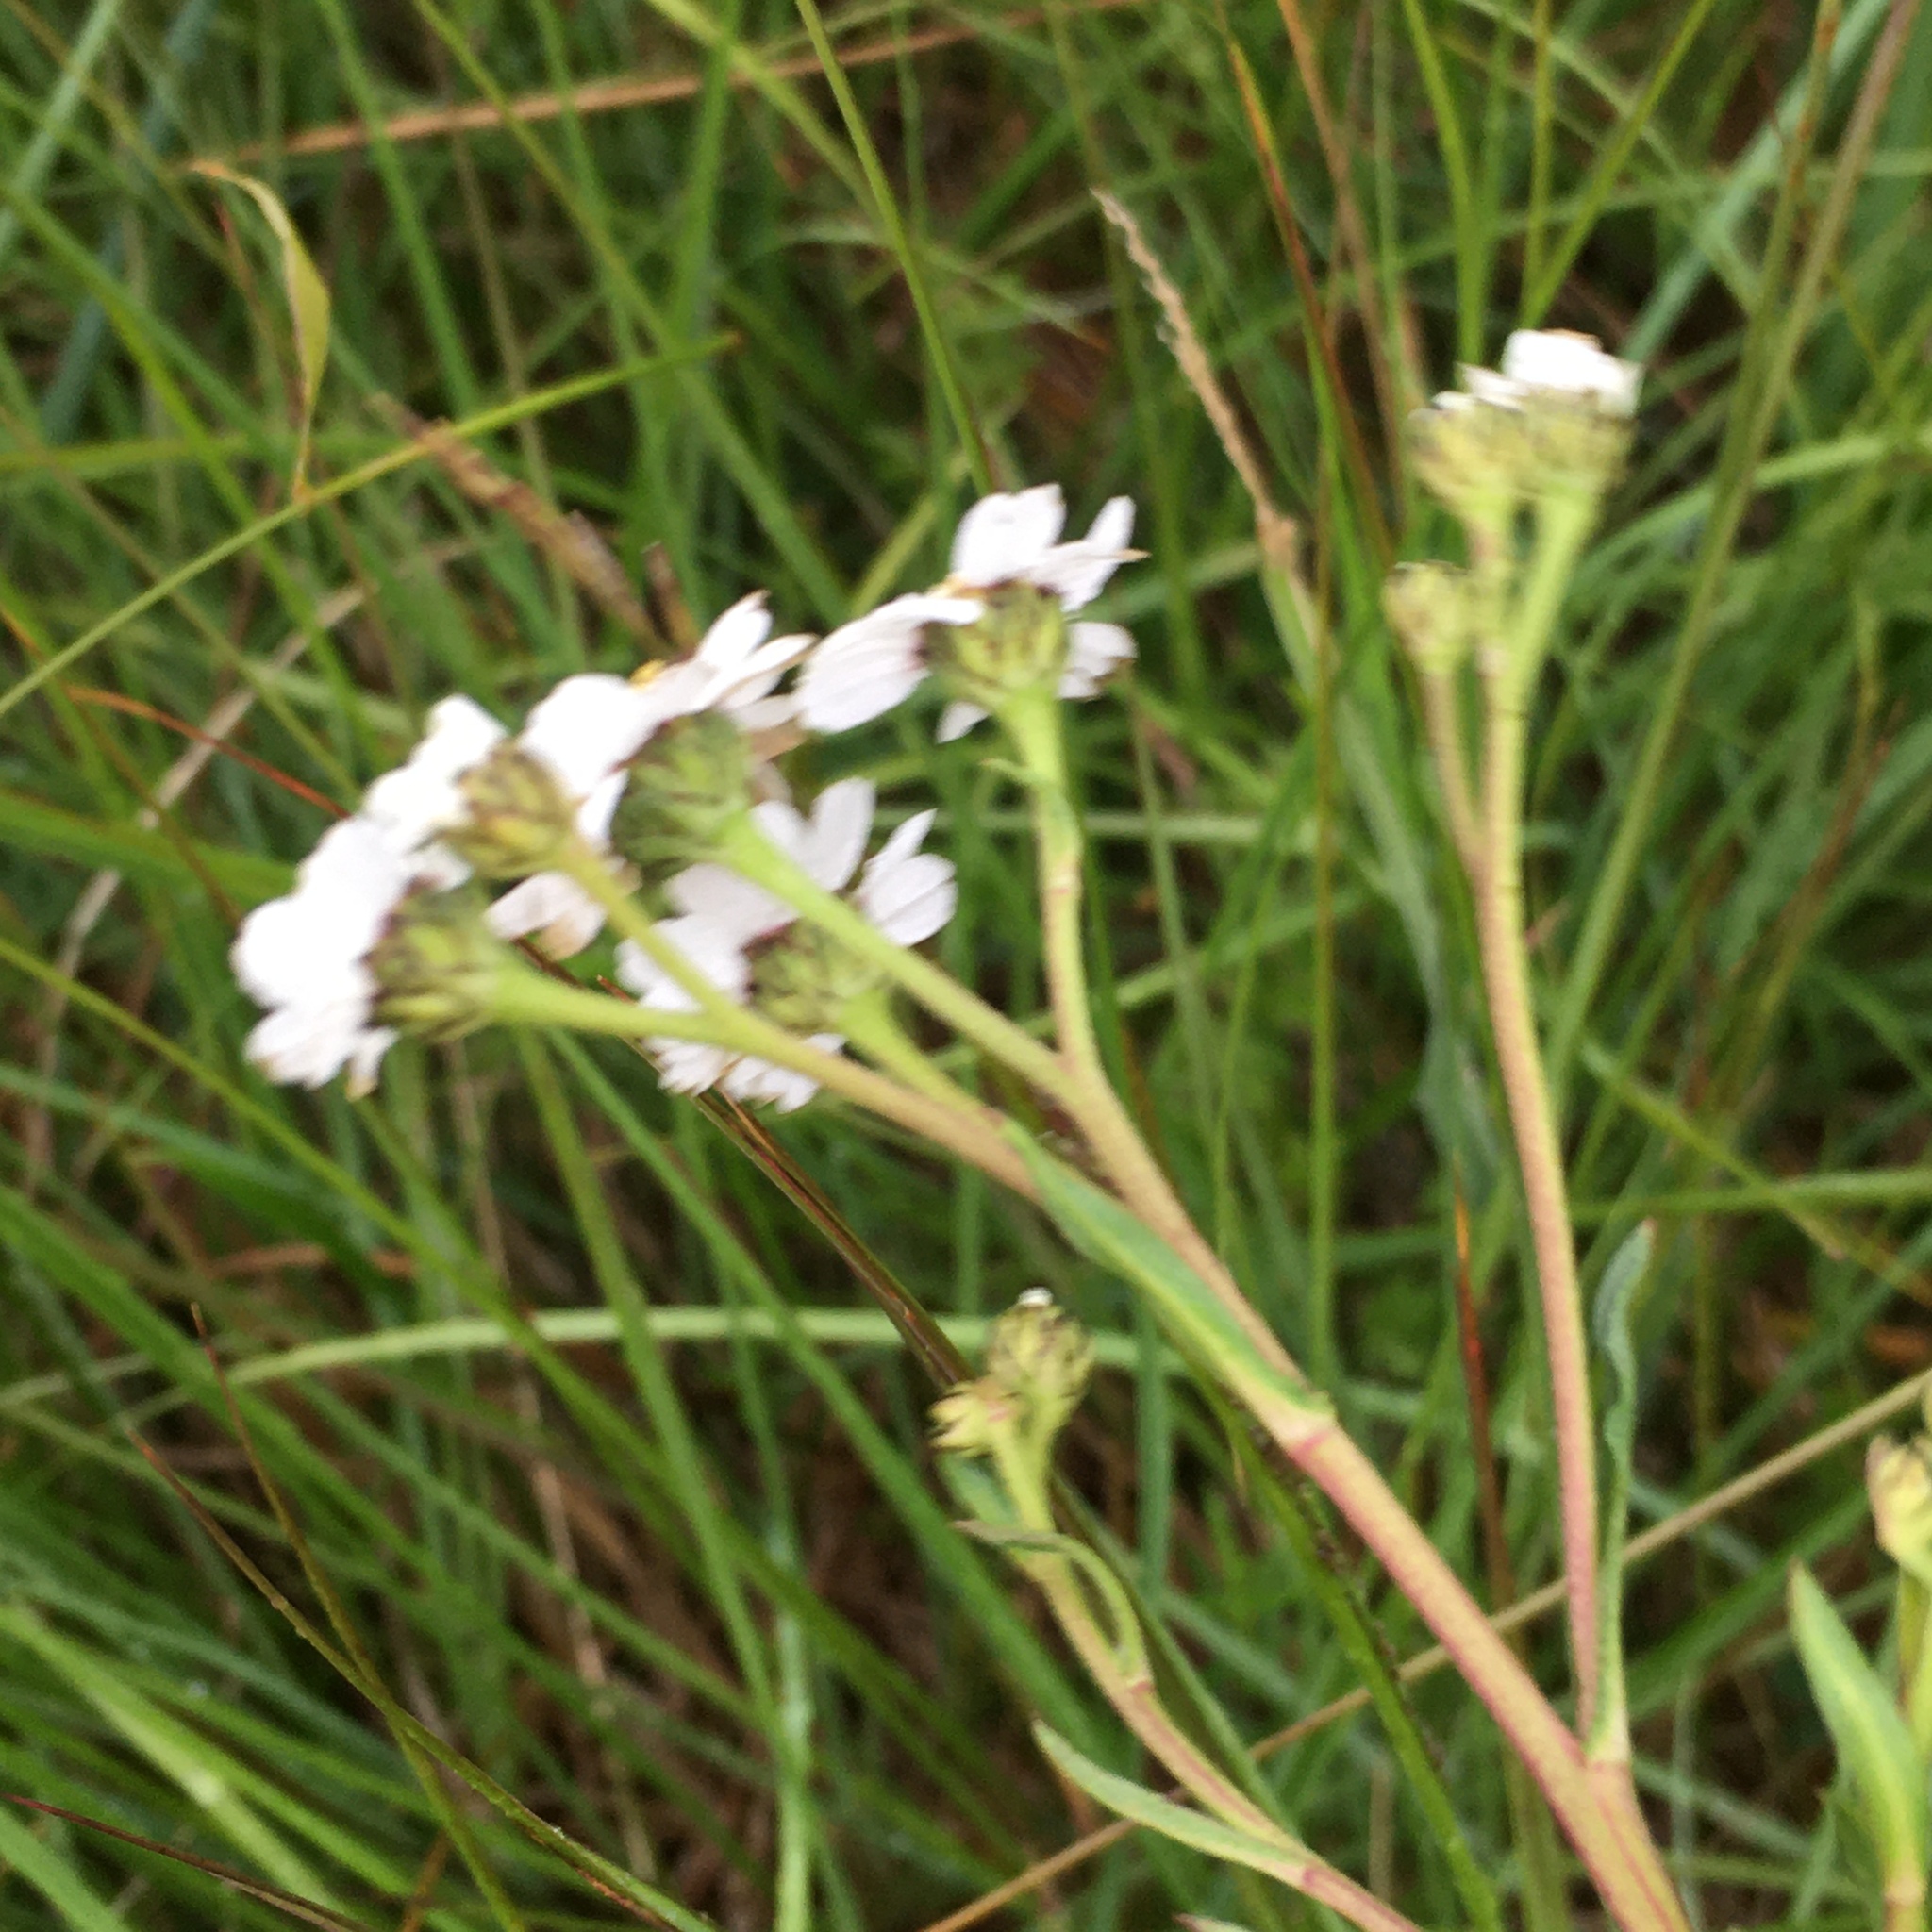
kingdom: Plantae
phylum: Tracheophyta
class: Magnoliopsida
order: Asterales
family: Asteraceae
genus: Achillea
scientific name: Achillea ptarmica
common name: Sneezeweed
